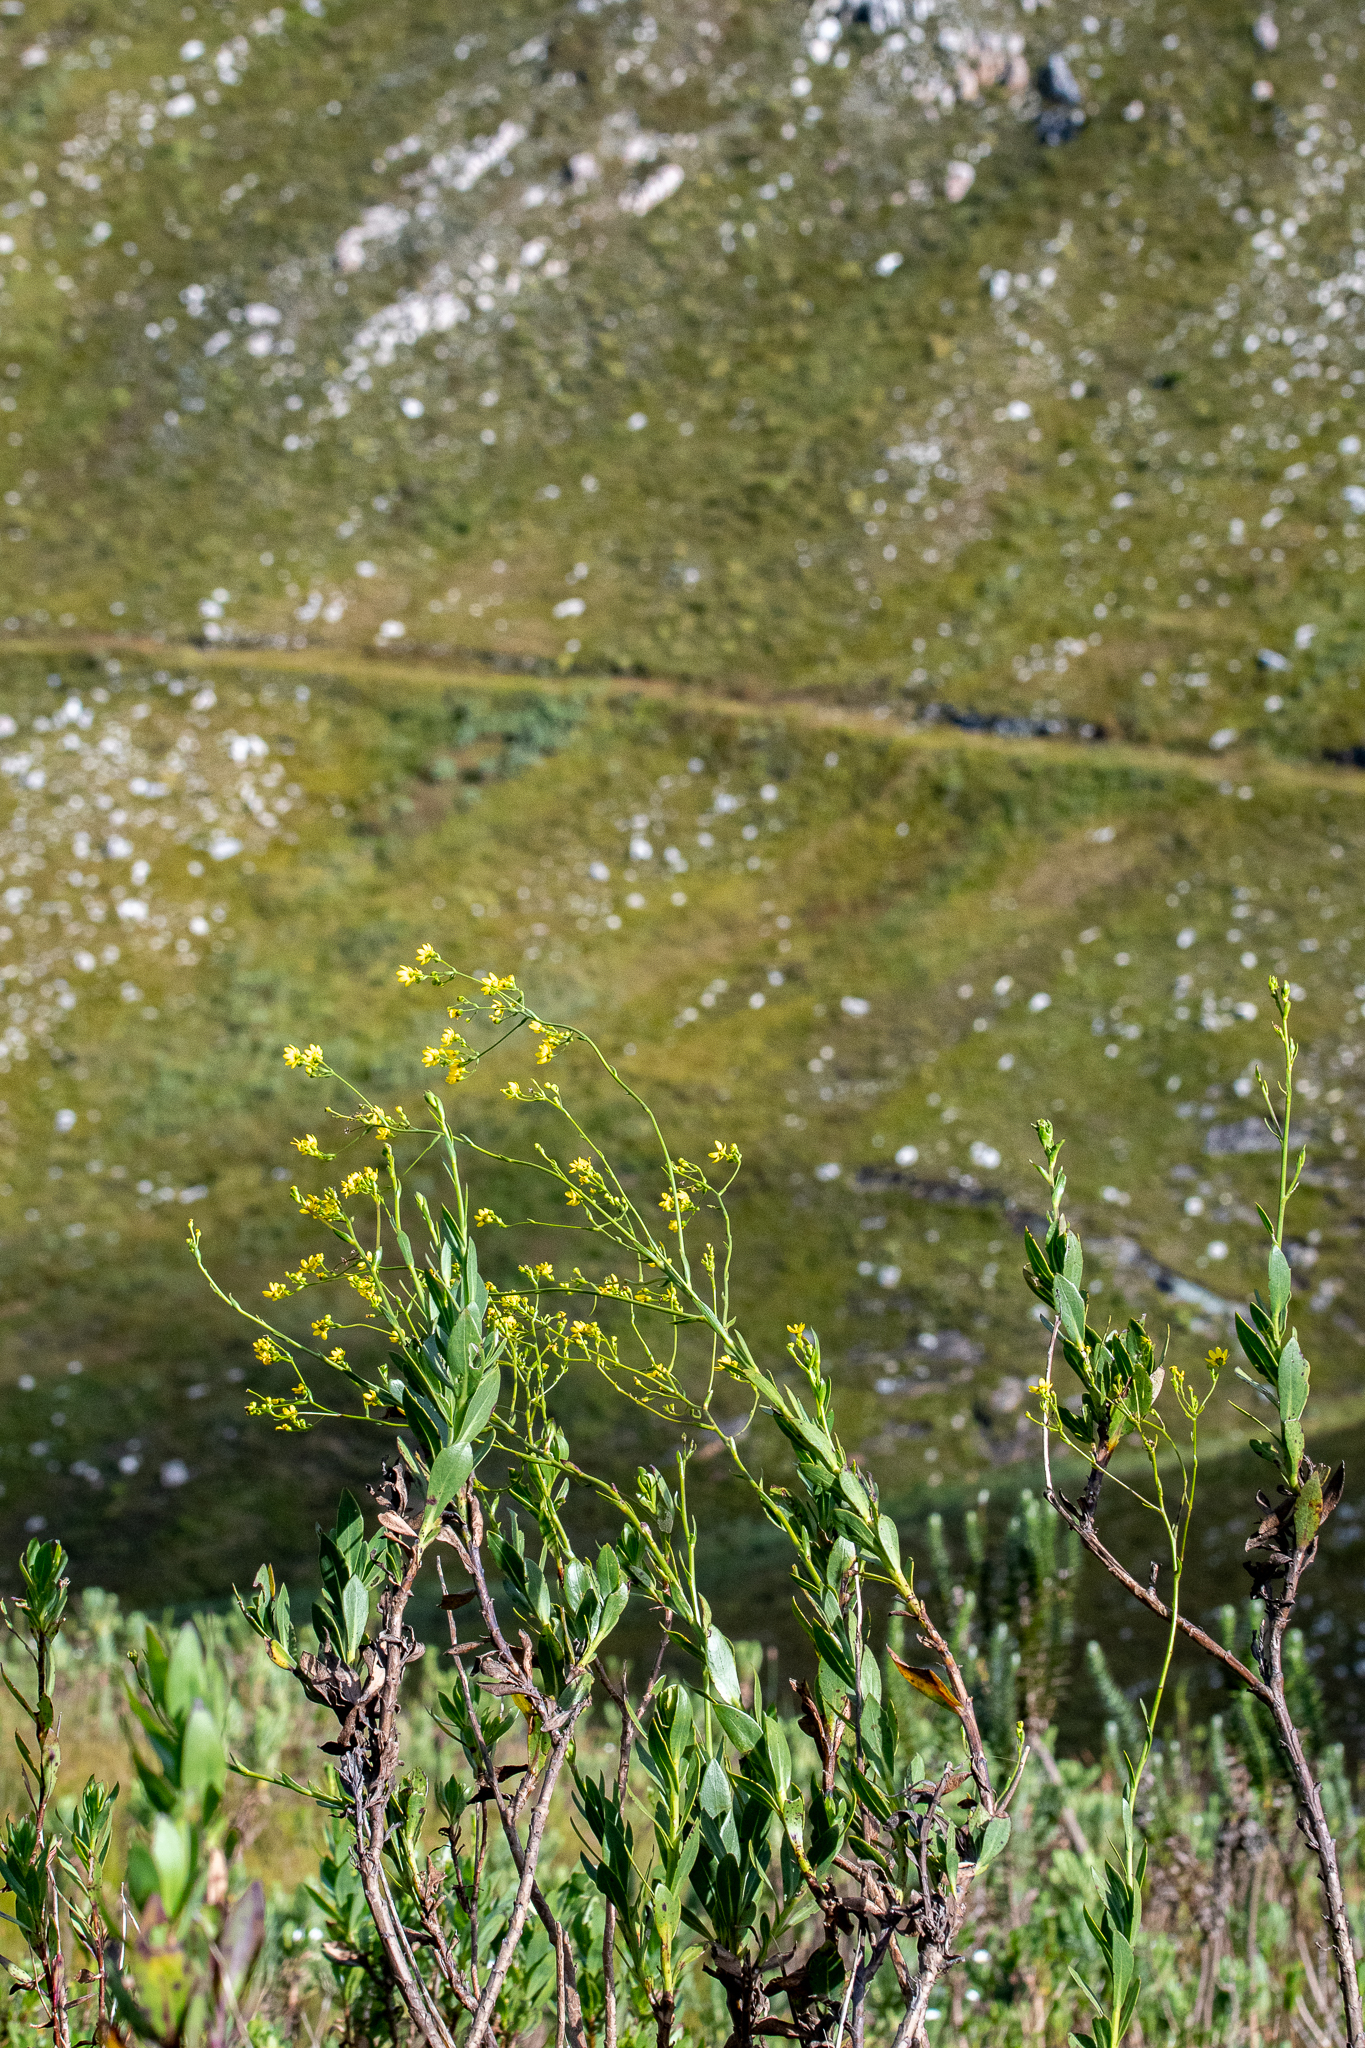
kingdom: Plantae
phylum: Tracheophyta
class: Magnoliopsida
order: Asterales
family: Asteraceae
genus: Othonna
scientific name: Othonna quinquedentata
